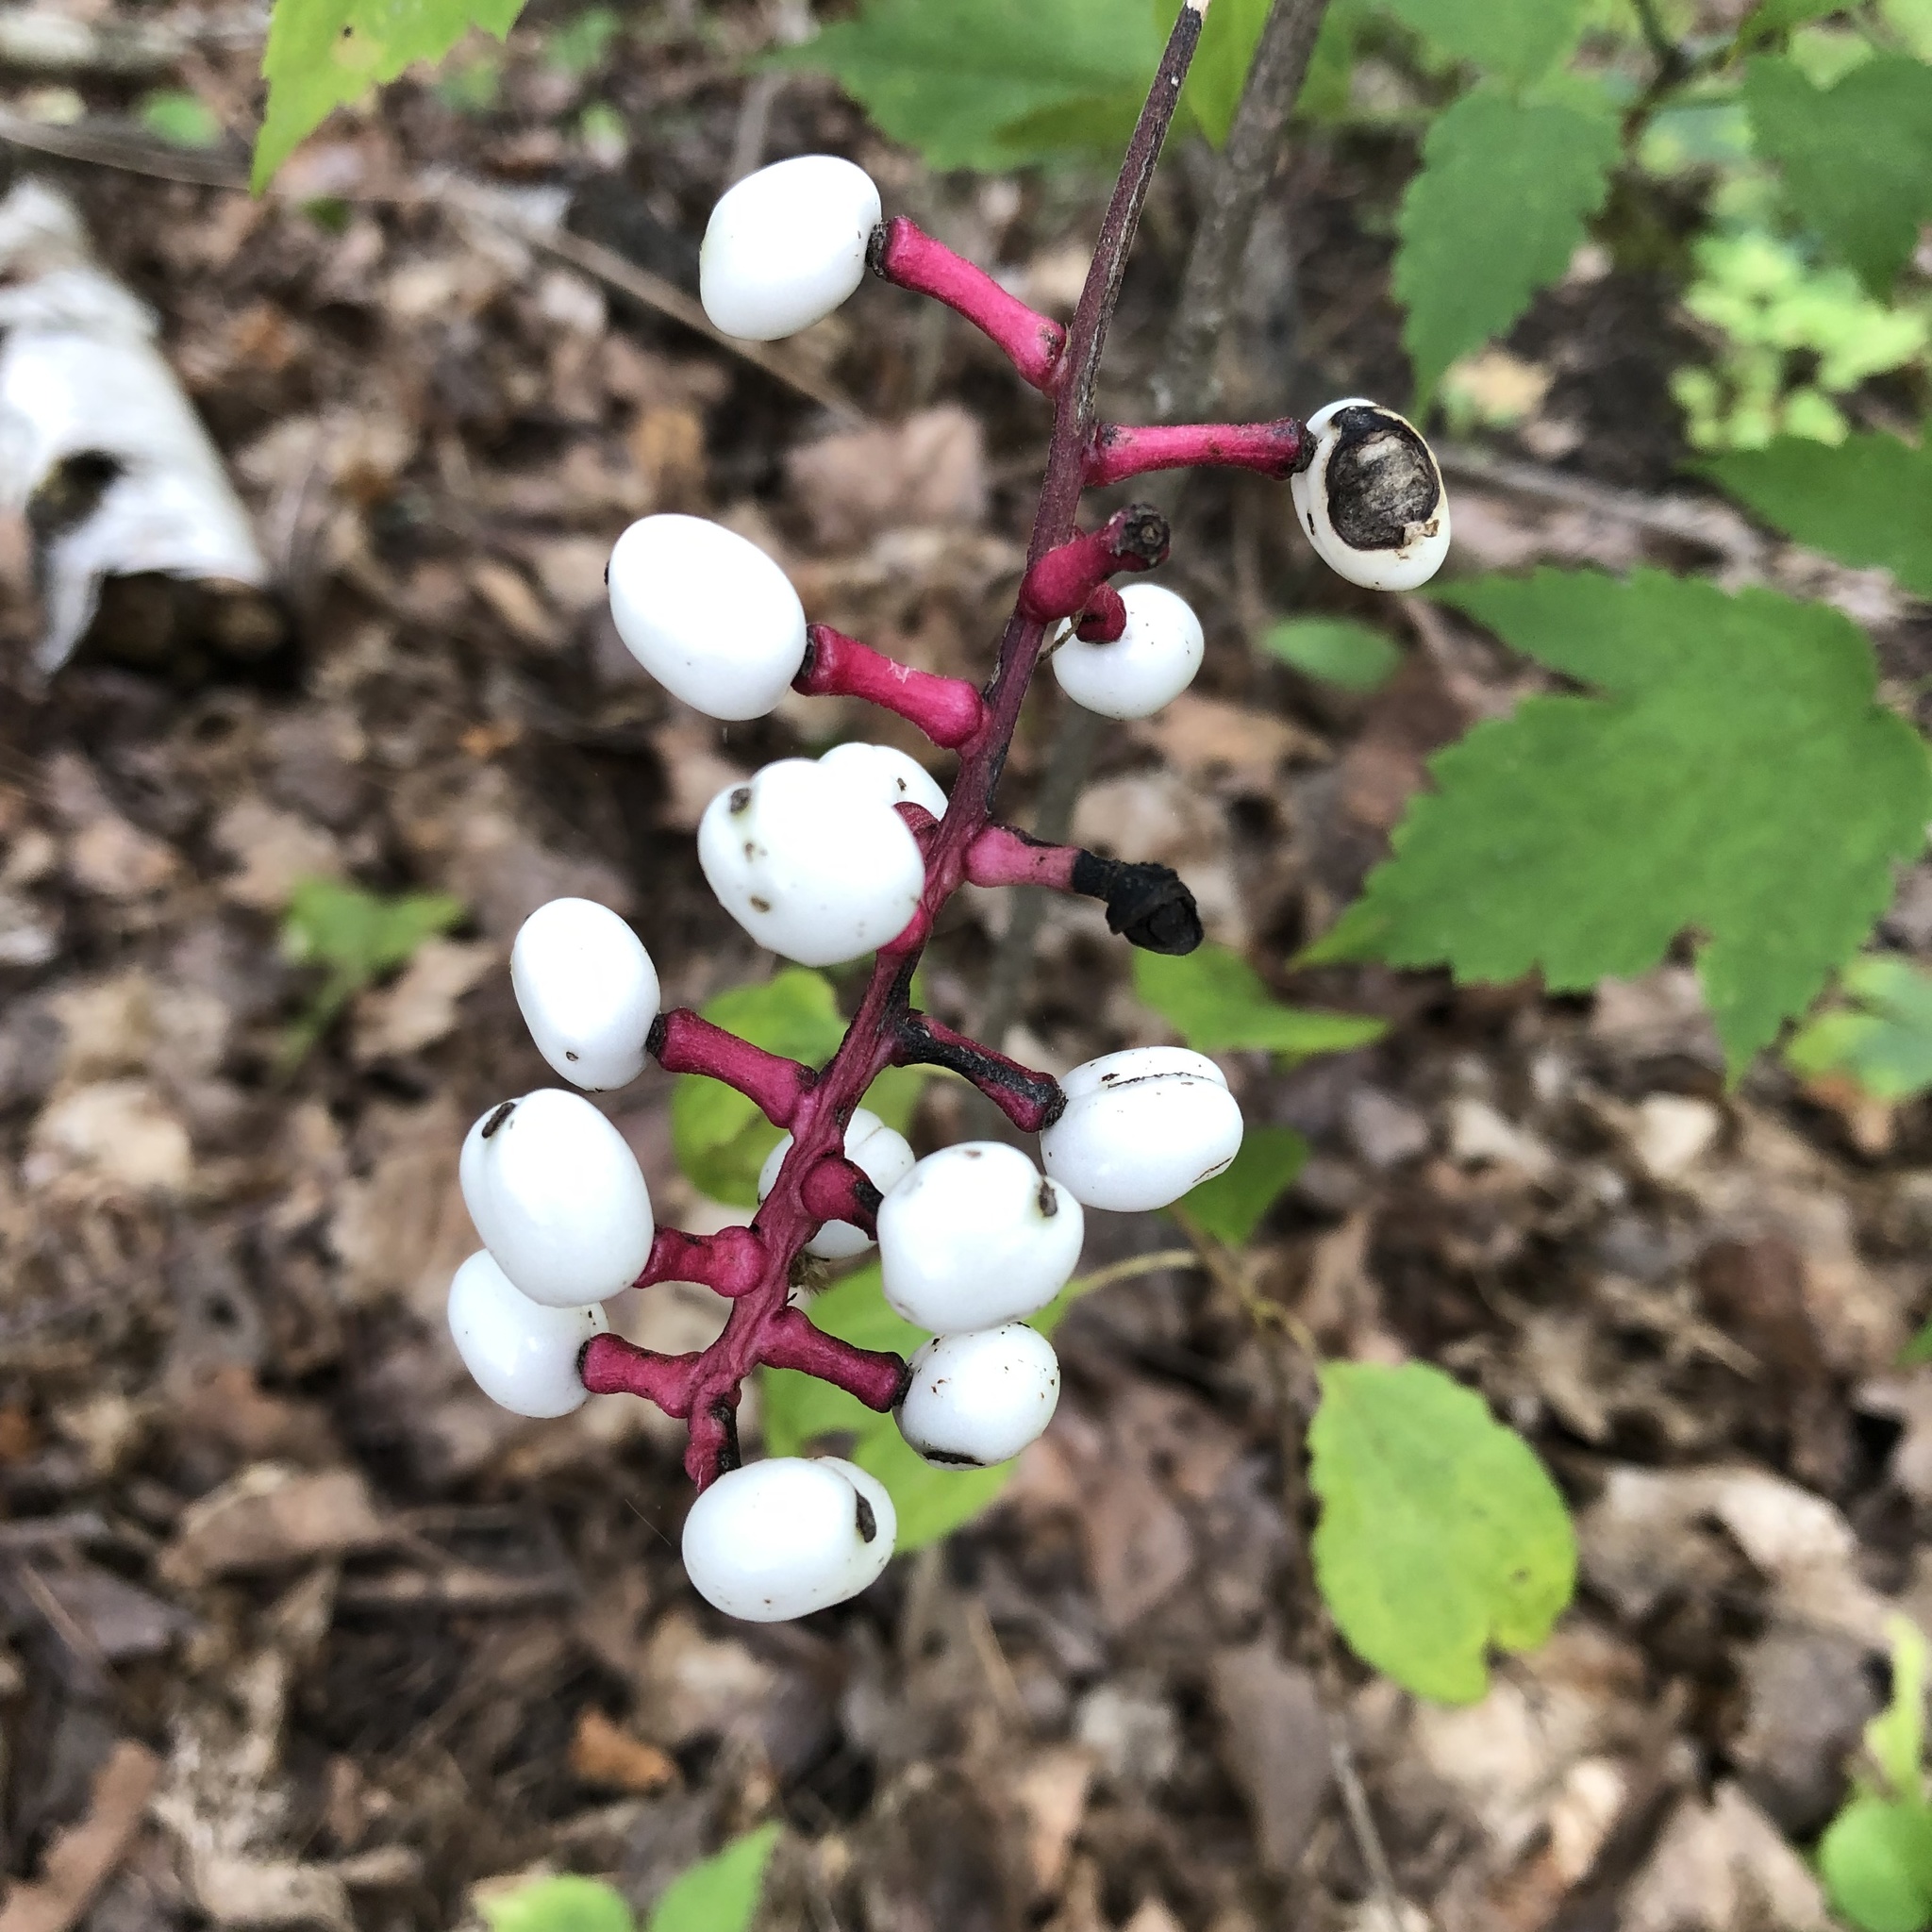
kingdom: Plantae
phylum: Tracheophyta
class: Magnoliopsida
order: Ranunculales
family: Ranunculaceae
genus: Actaea
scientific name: Actaea pachypoda
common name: Doll's-eyes
